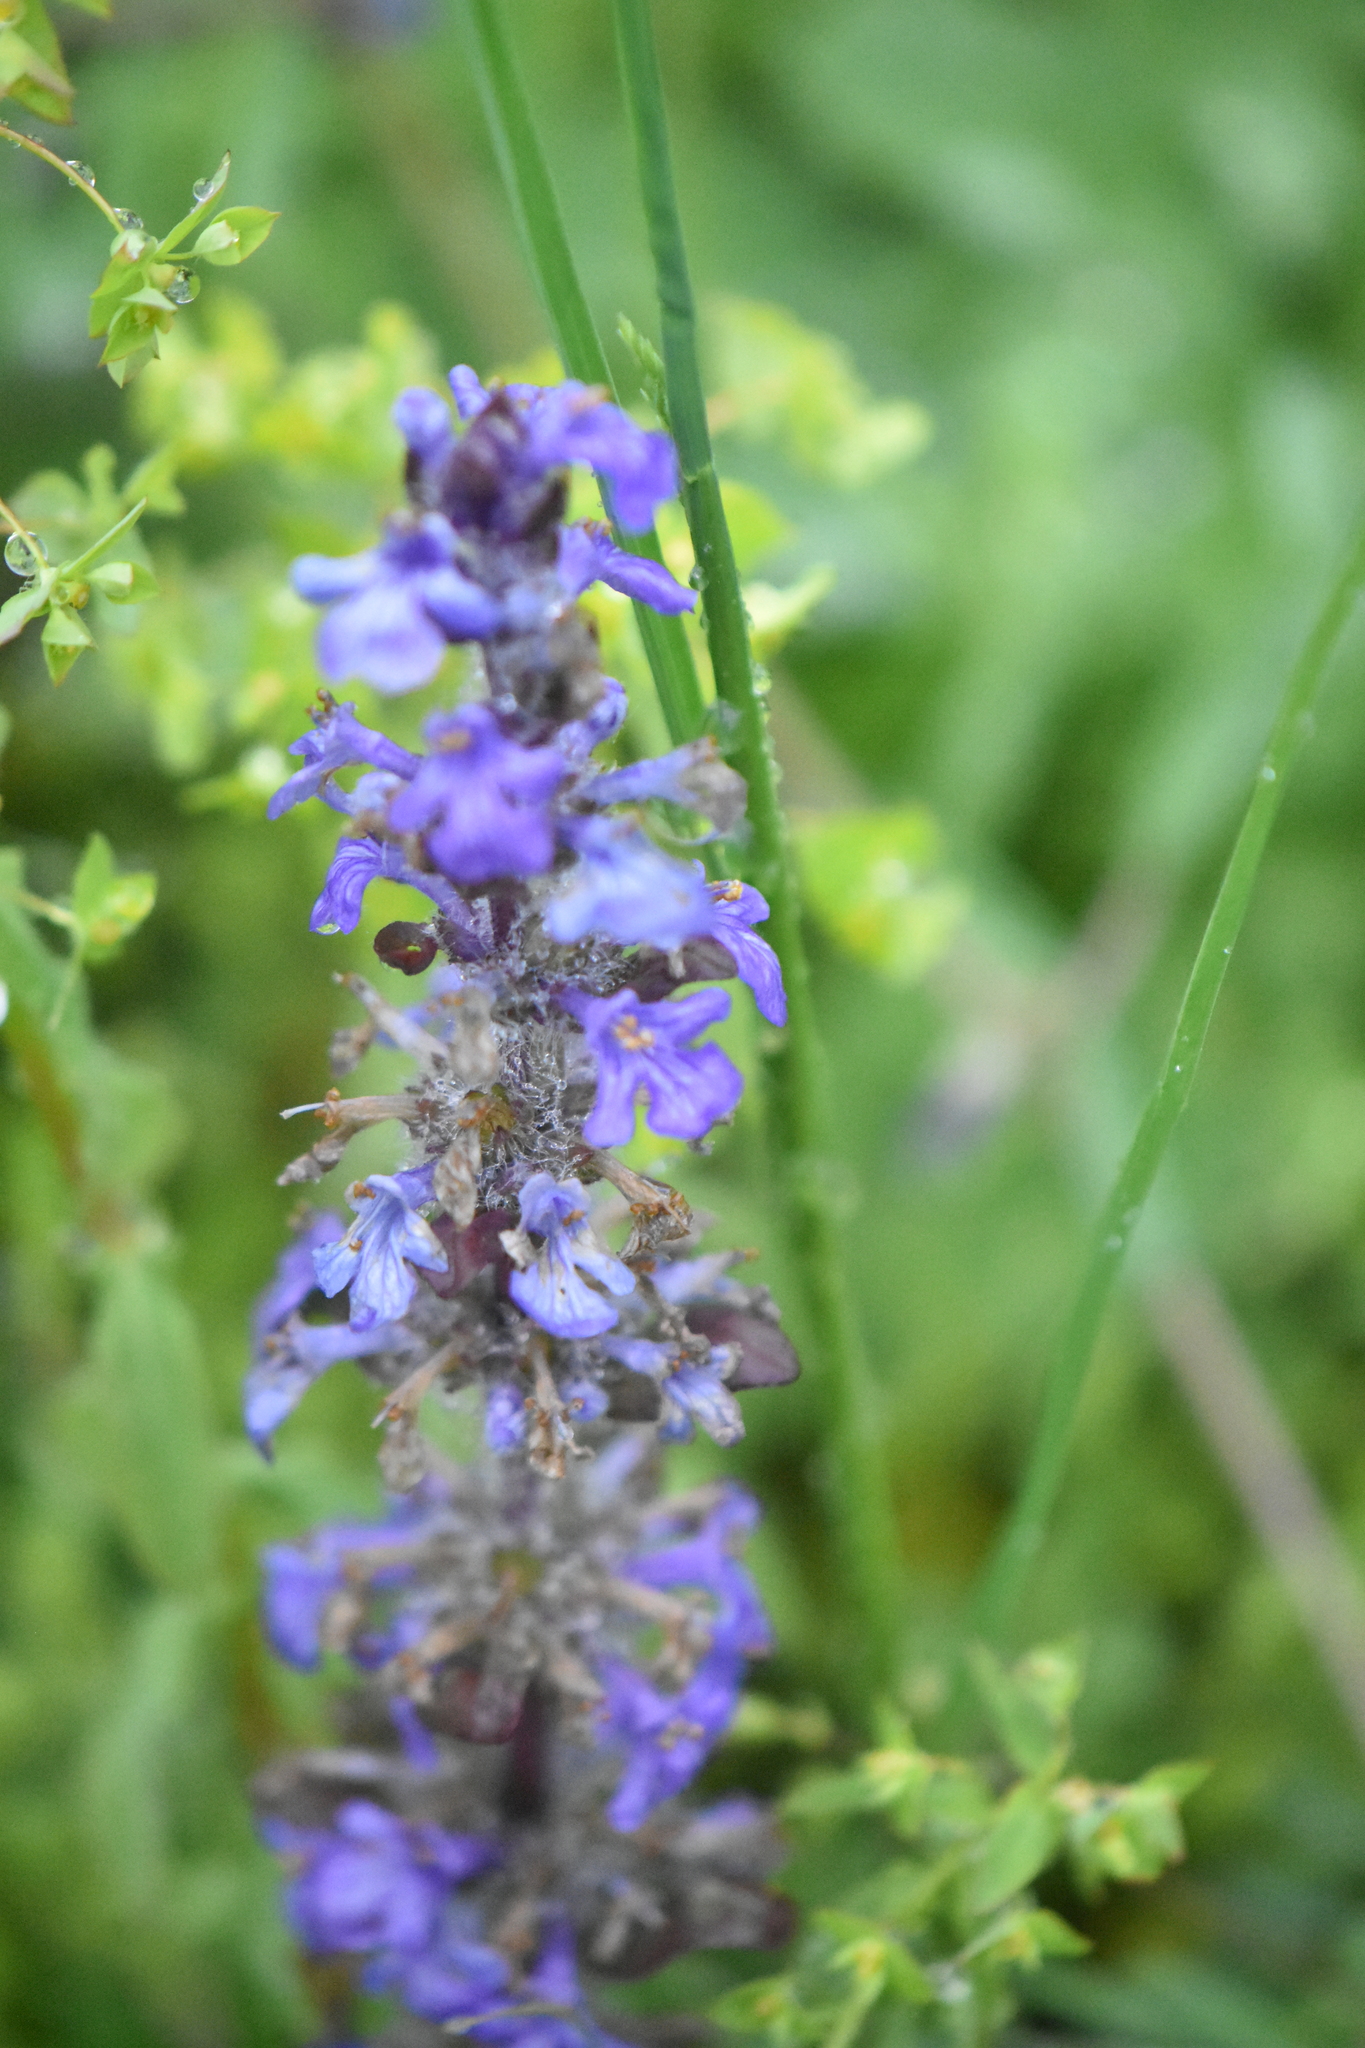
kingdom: Plantae
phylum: Tracheophyta
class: Magnoliopsida
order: Lamiales
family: Lamiaceae
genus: Ajuga
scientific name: Ajuga reptans
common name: Bugle
